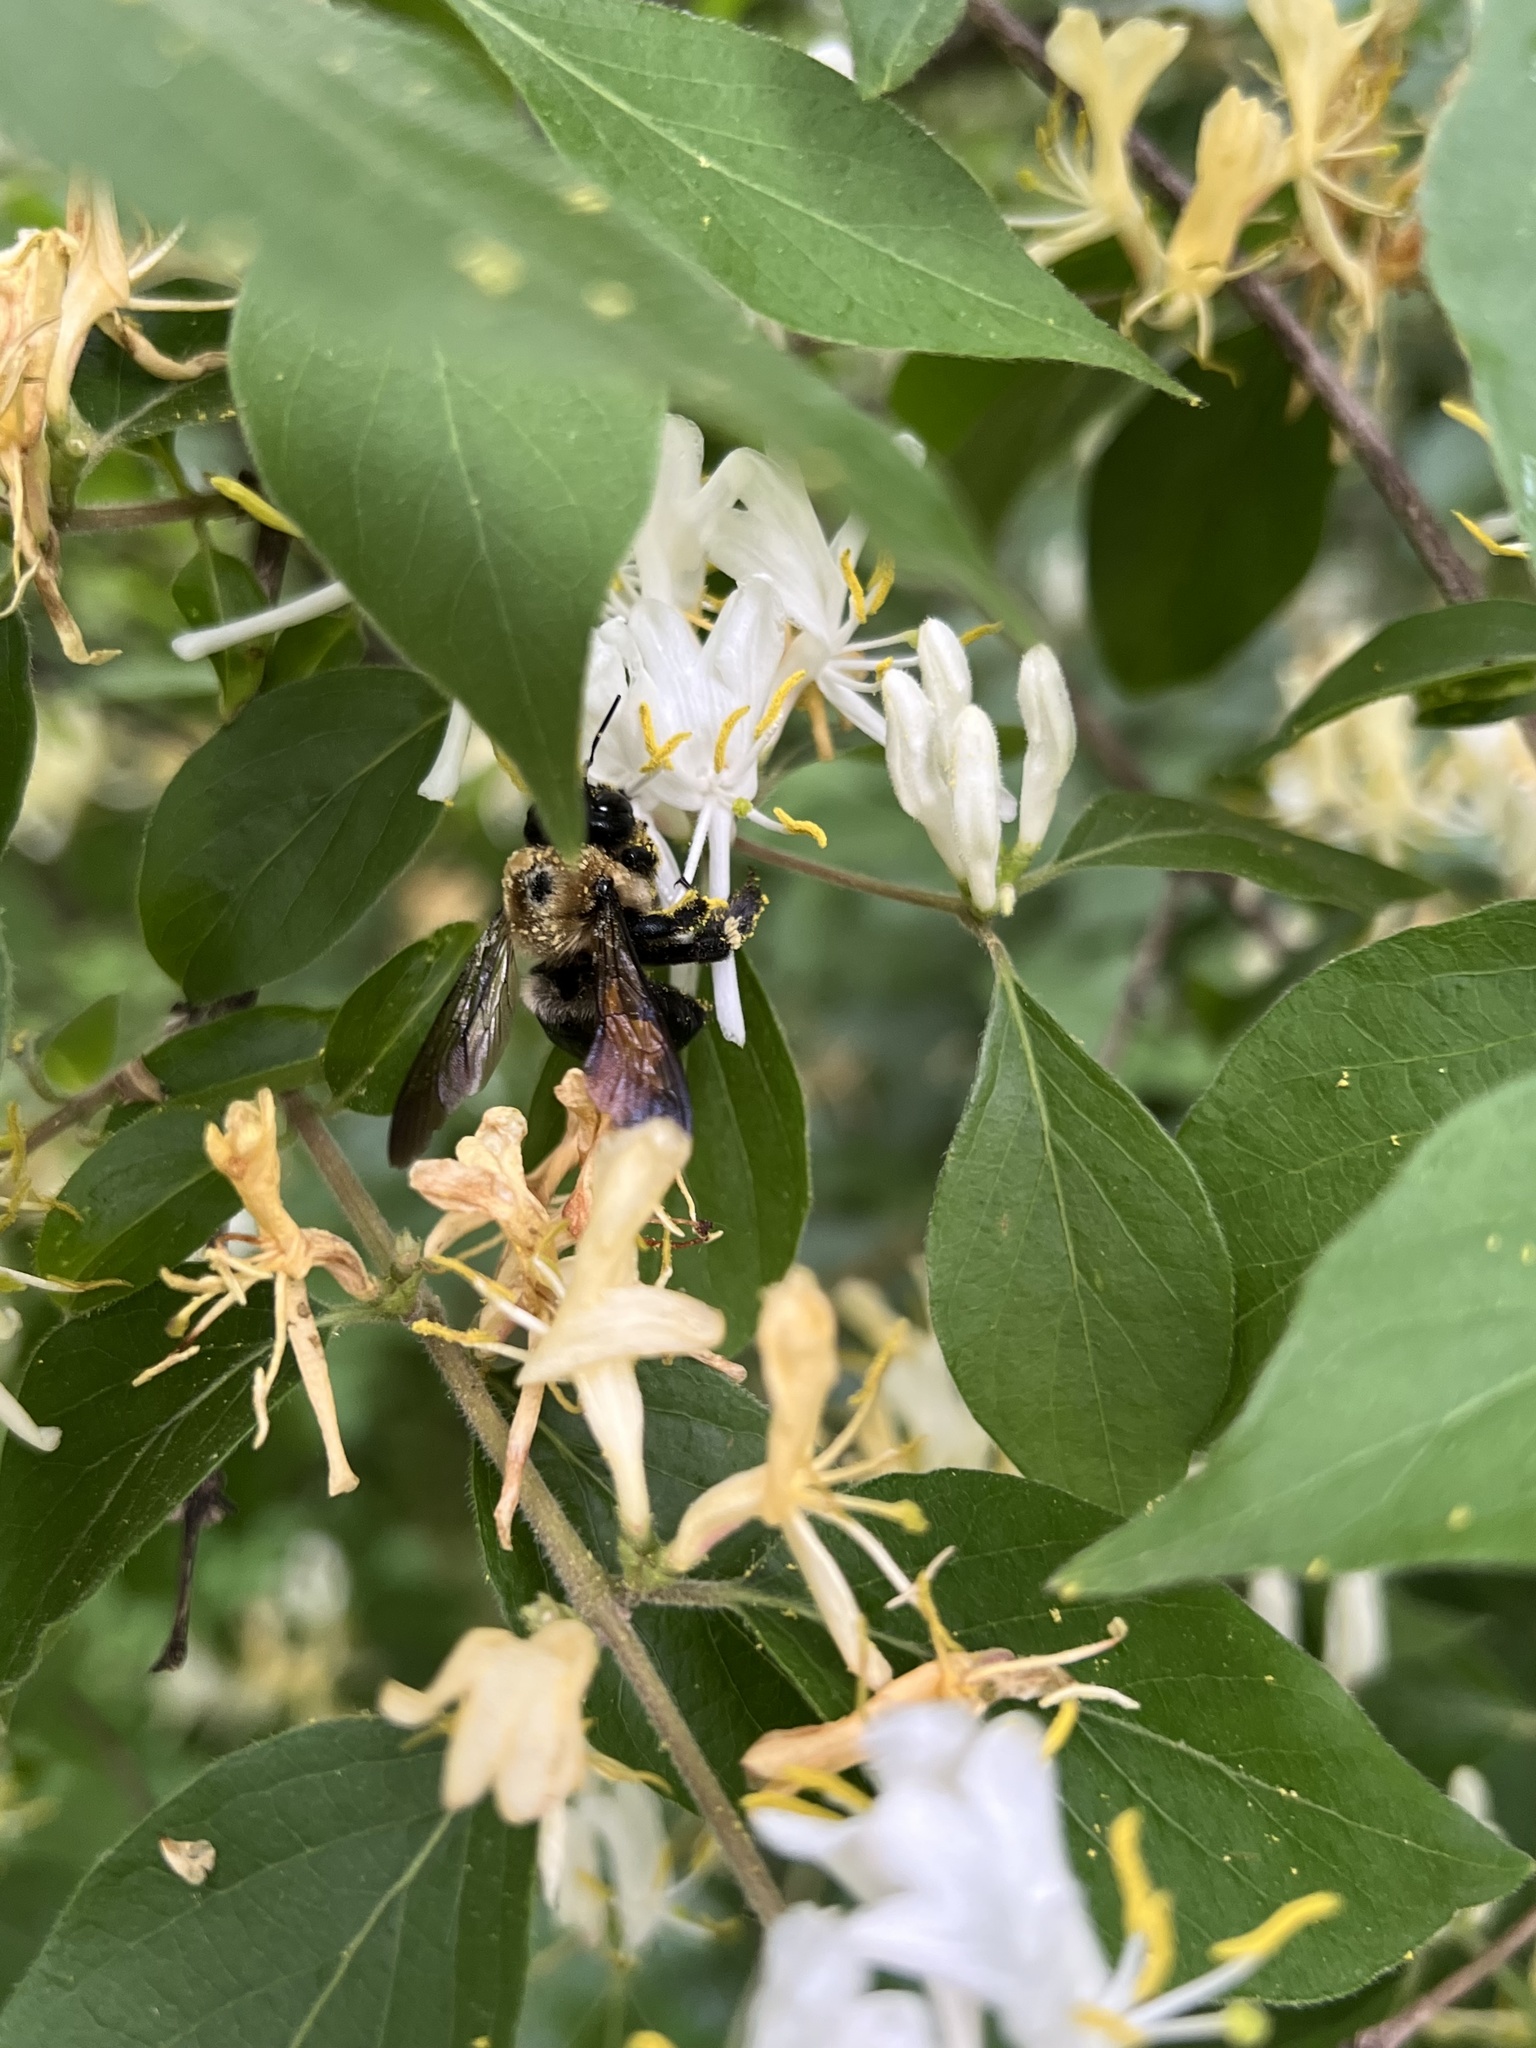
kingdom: Animalia
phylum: Arthropoda
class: Insecta
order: Hymenoptera
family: Apidae
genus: Xylocopa
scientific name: Xylocopa virginica
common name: Carpenter bee
